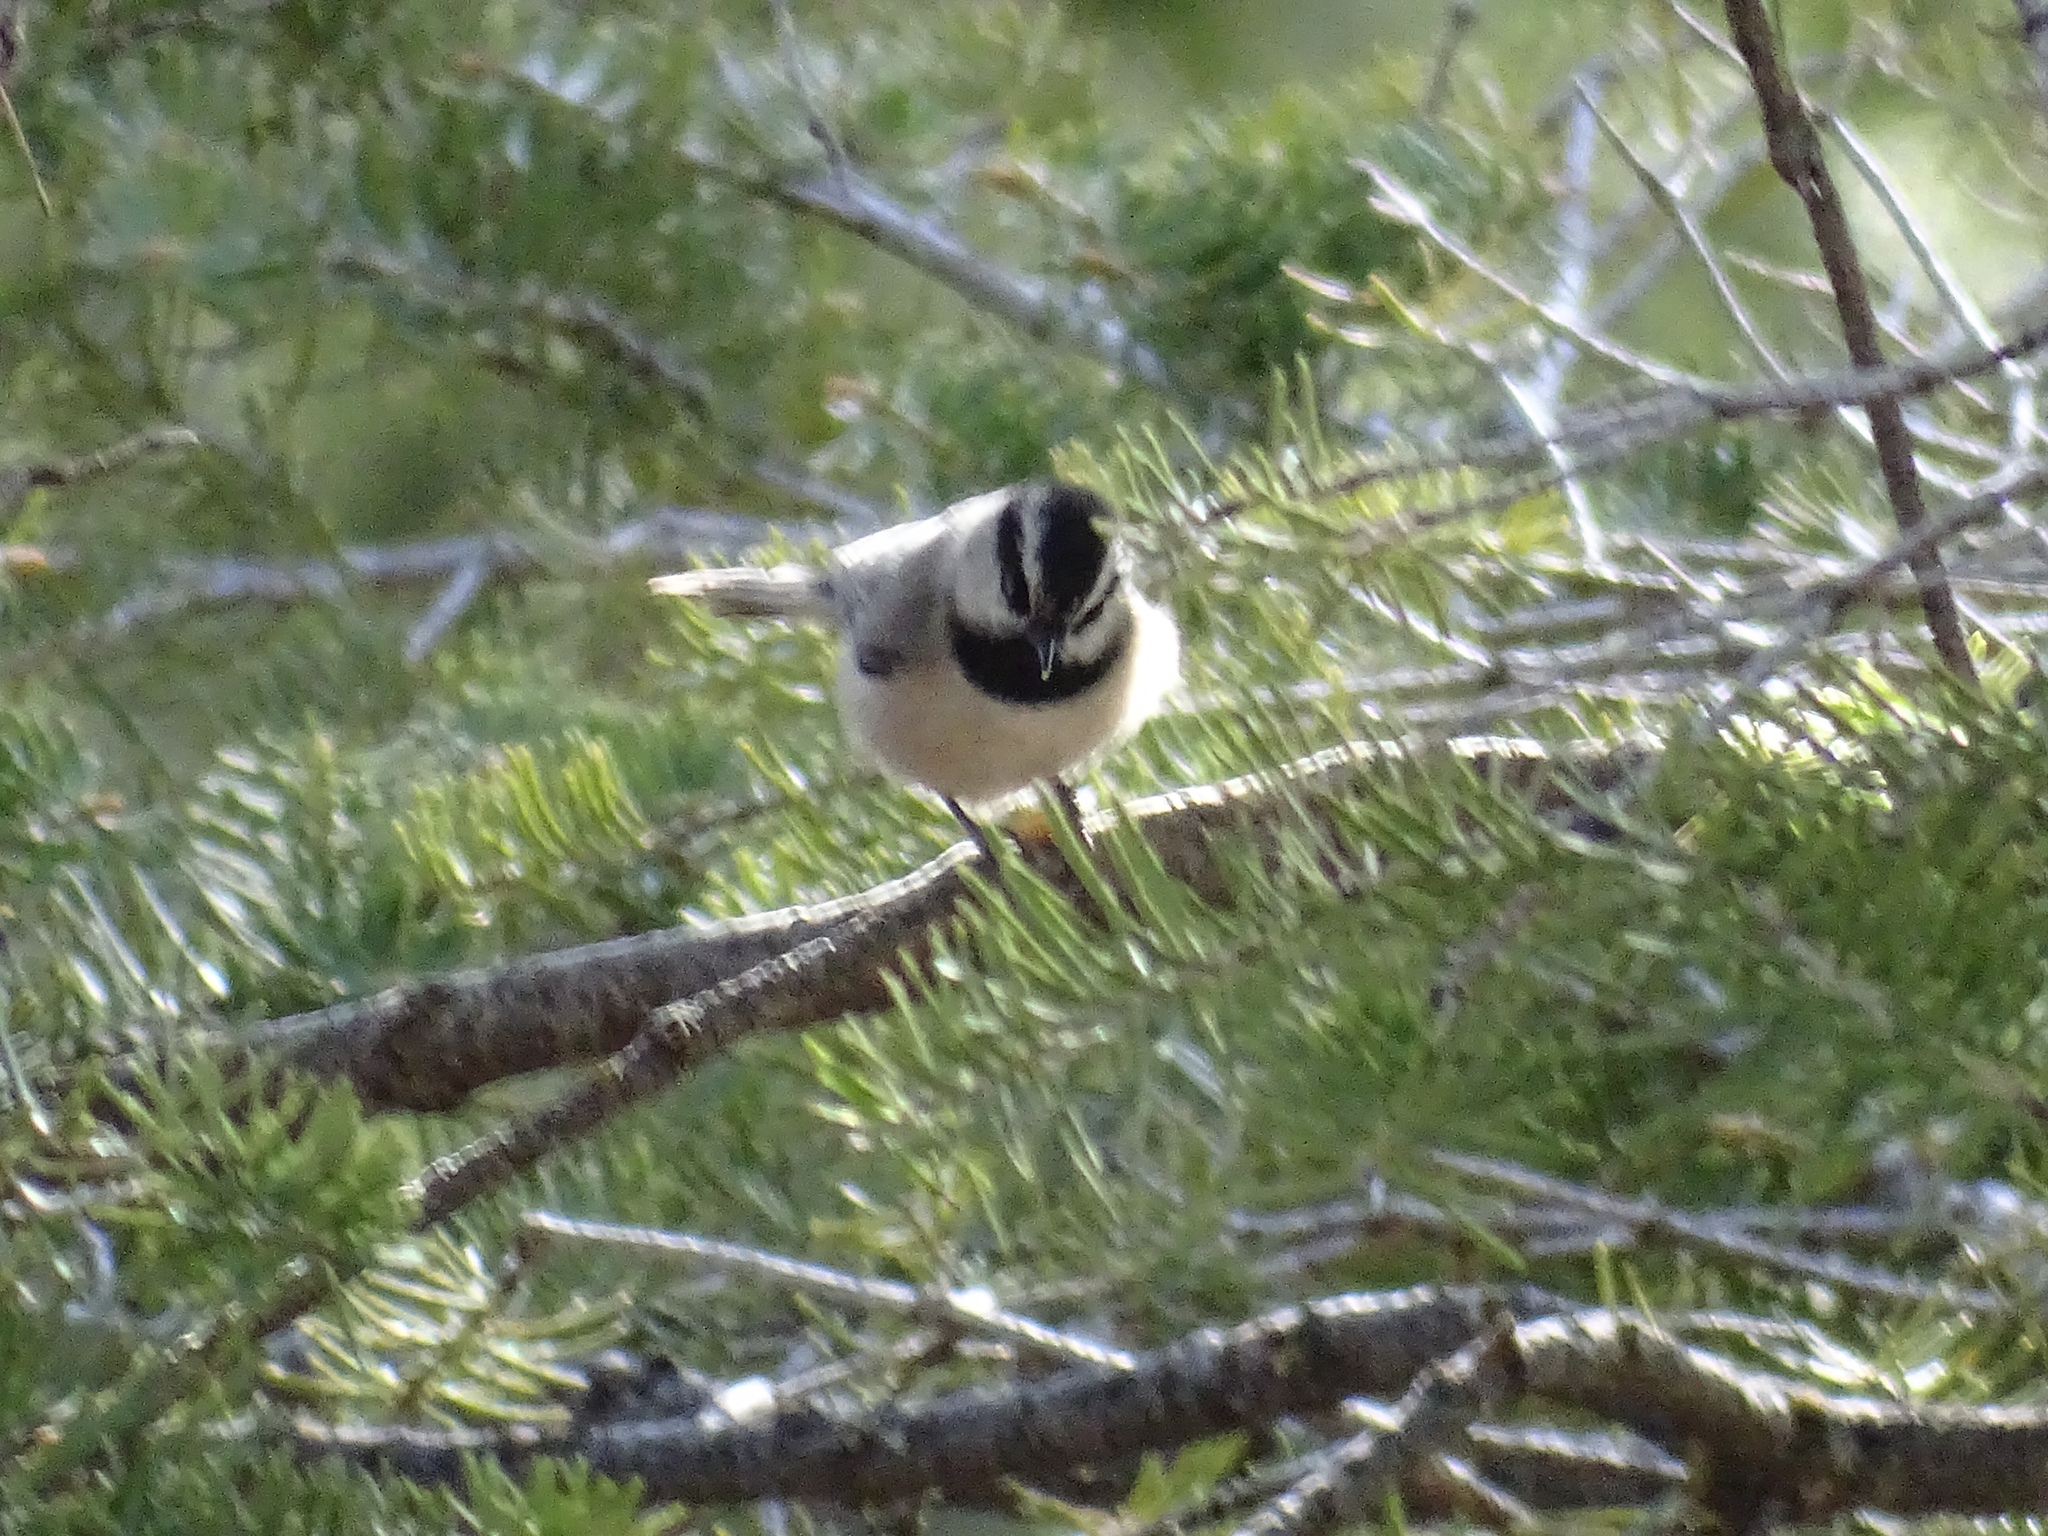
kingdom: Animalia
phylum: Chordata
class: Aves
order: Passeriformes
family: Paridae
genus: Poecile
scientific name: Poecile gambeli
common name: Mountain chickadee
